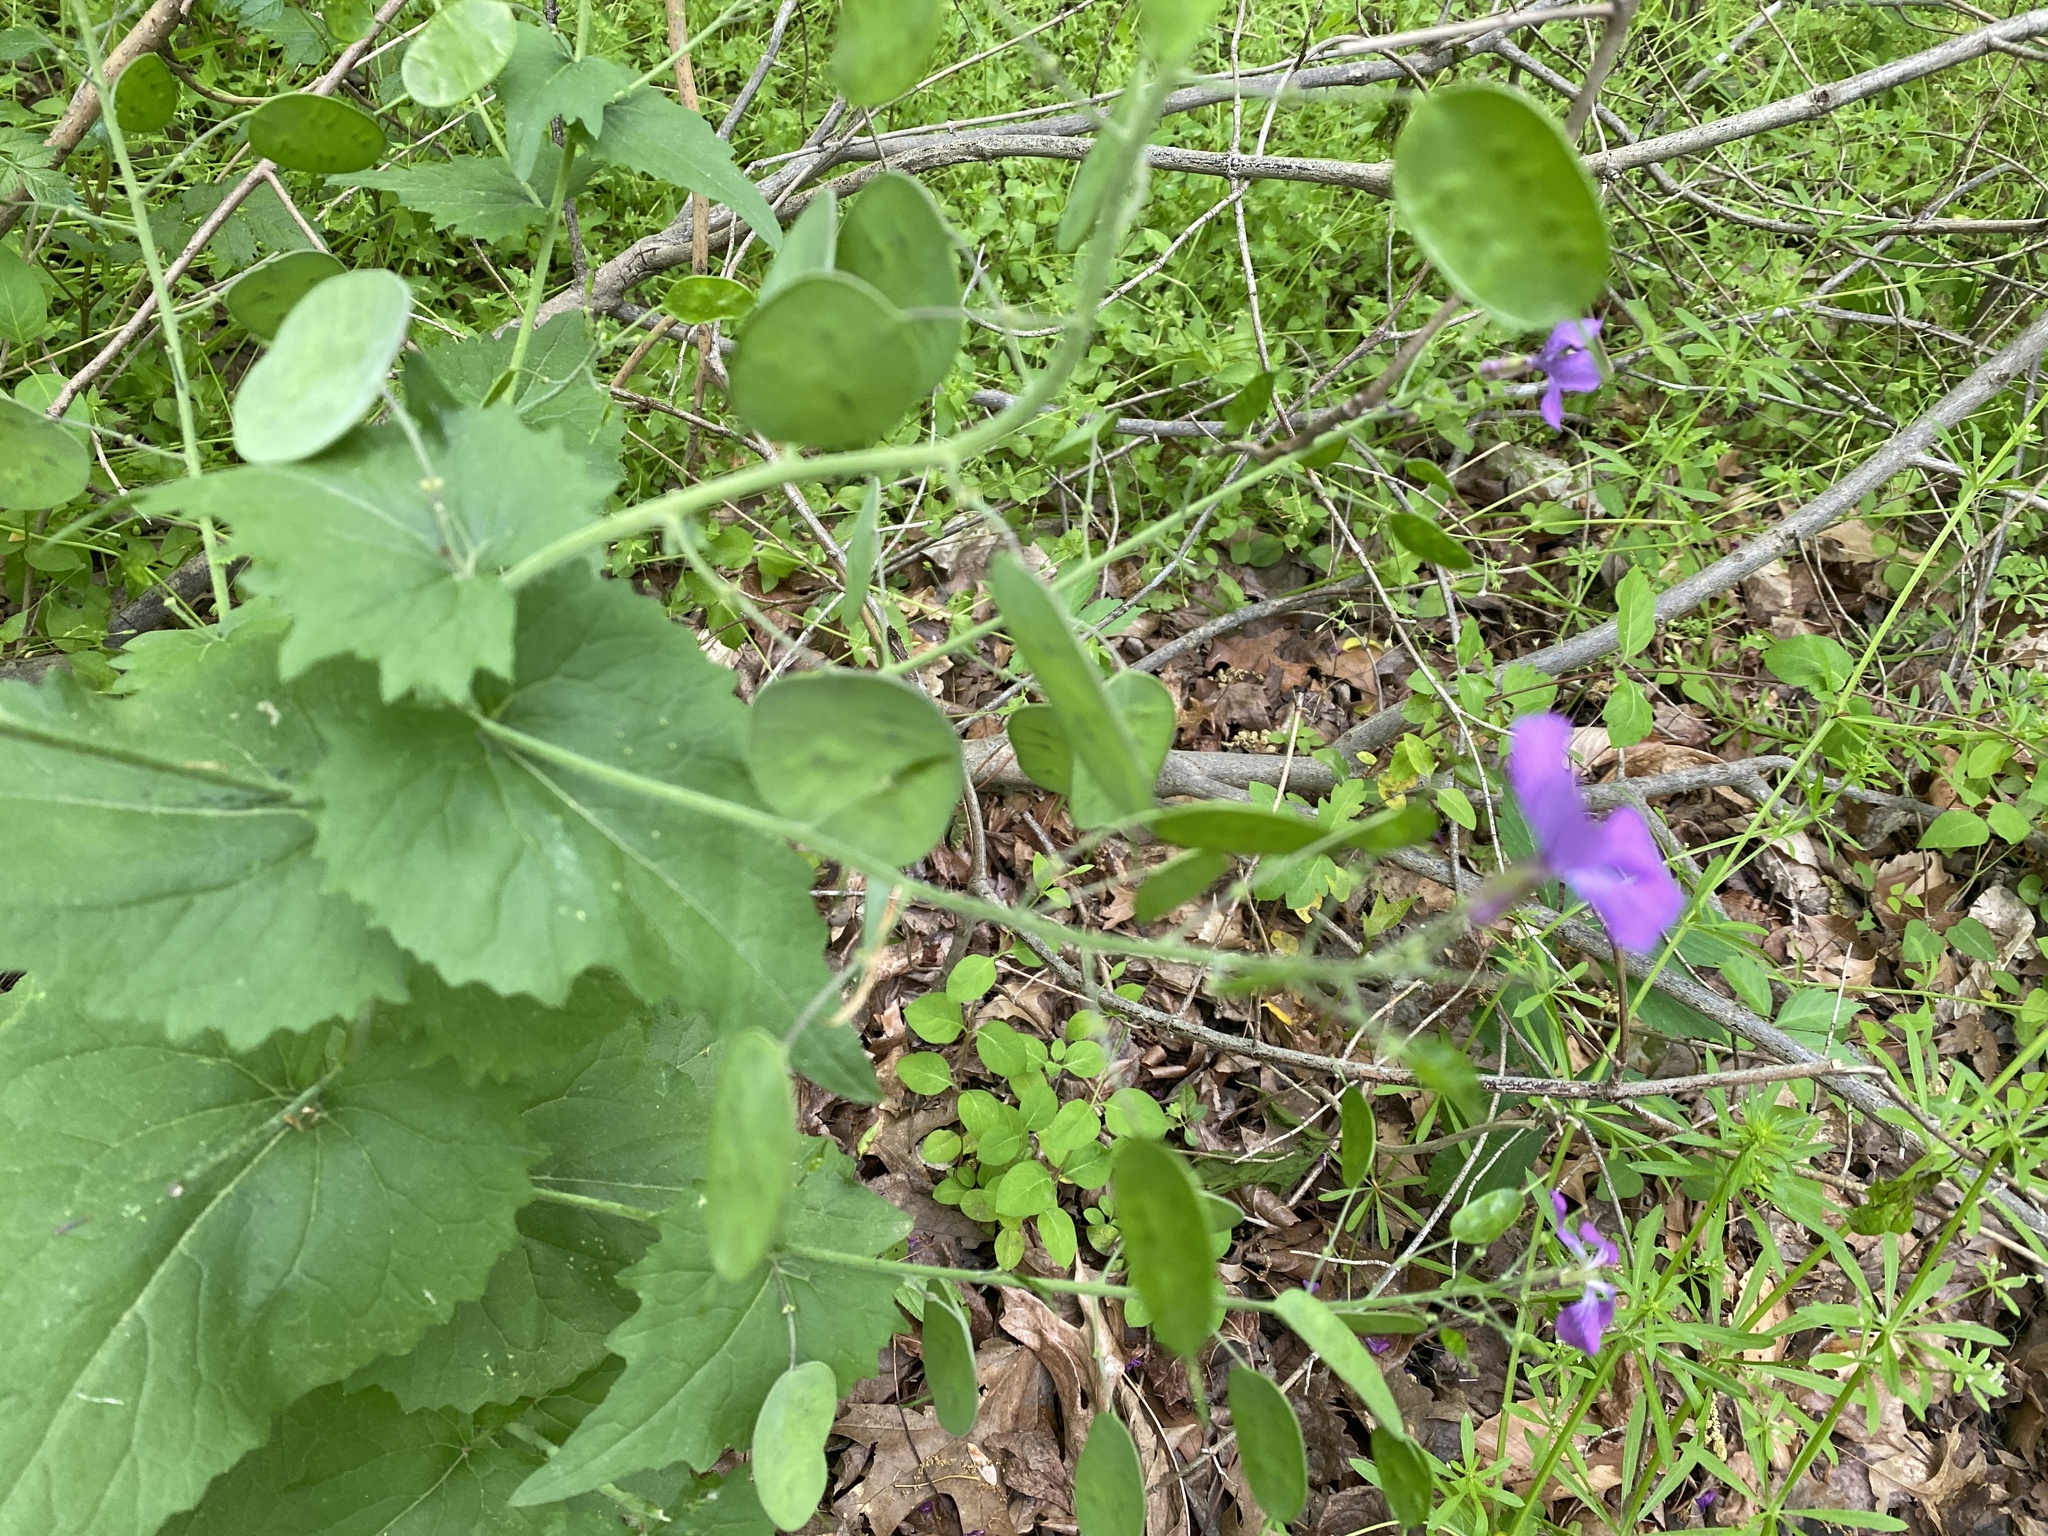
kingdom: Plantae
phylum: Tracheophyta
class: Magnoliopsida
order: Brassicales
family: Brassicaceae
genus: Lunaria
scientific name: Lunaria annua
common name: Honesty
